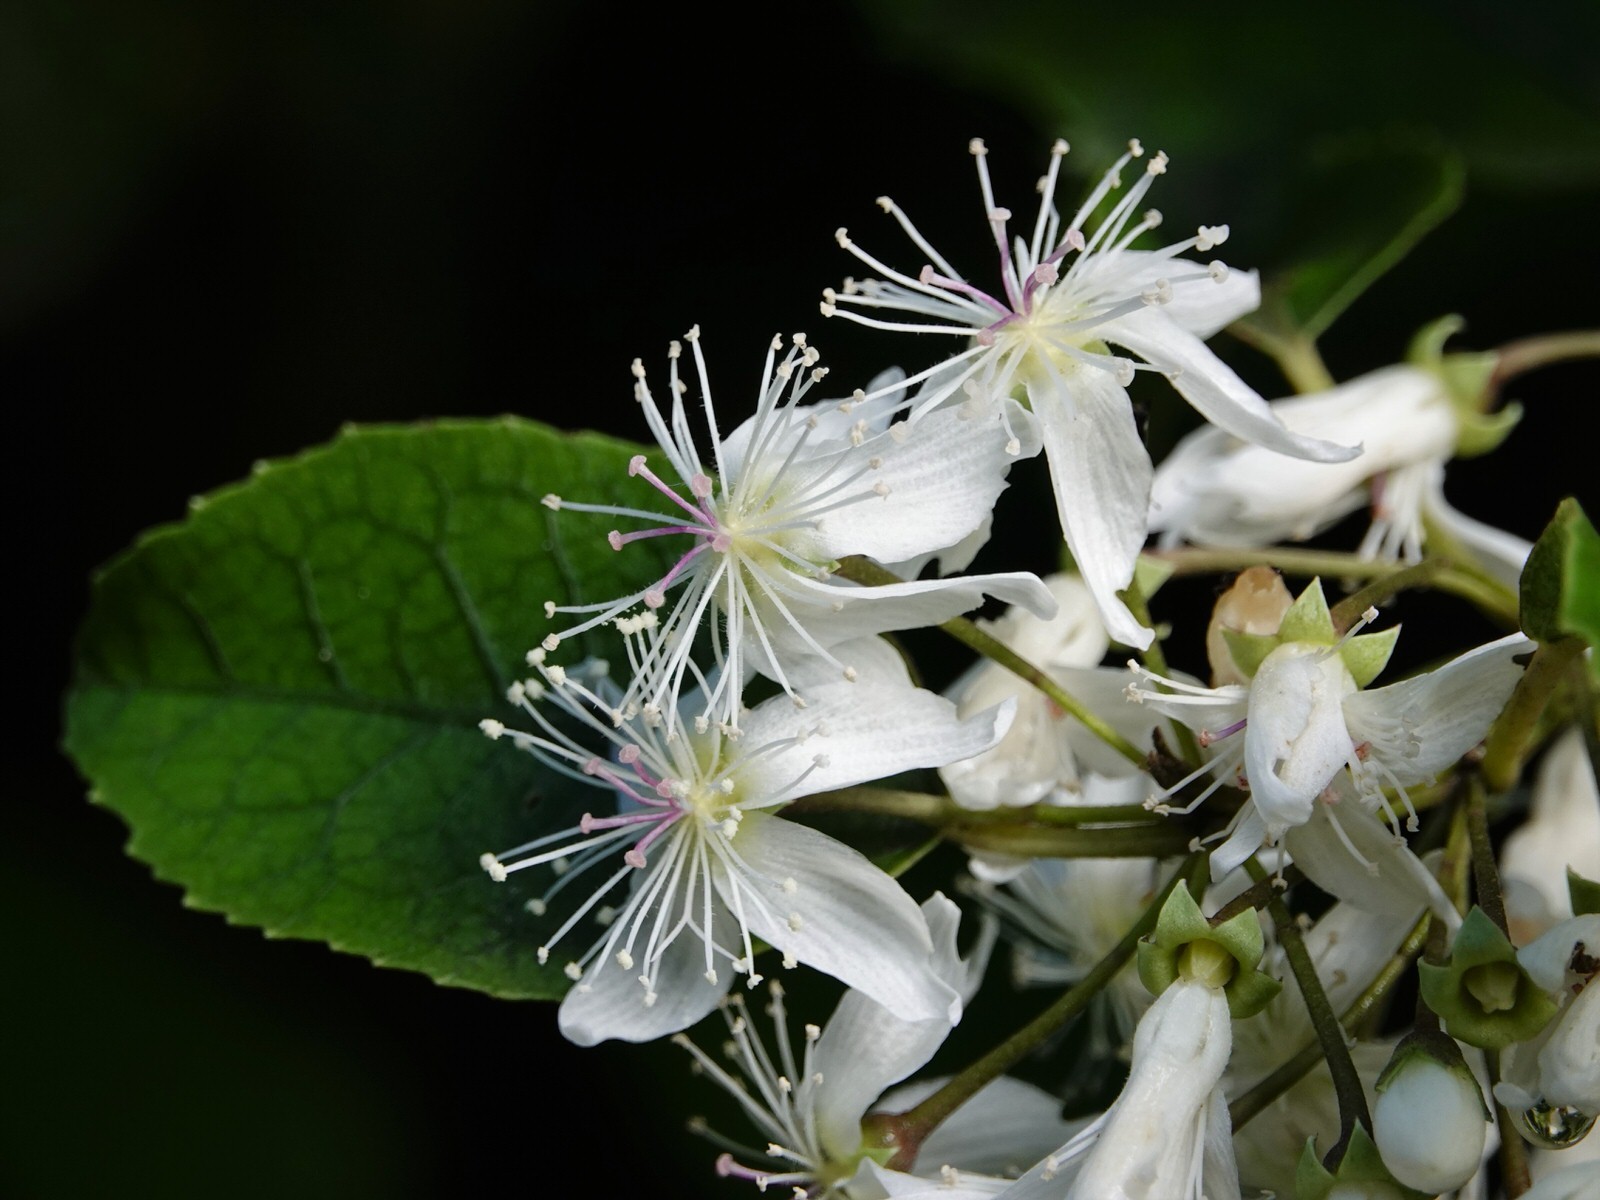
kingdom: Plantae
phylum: Tracheophyta
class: Magnoliopsida
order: Malvales
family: Malvaceae
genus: Hoheria
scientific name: Hoheria populnea
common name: Lacebark
